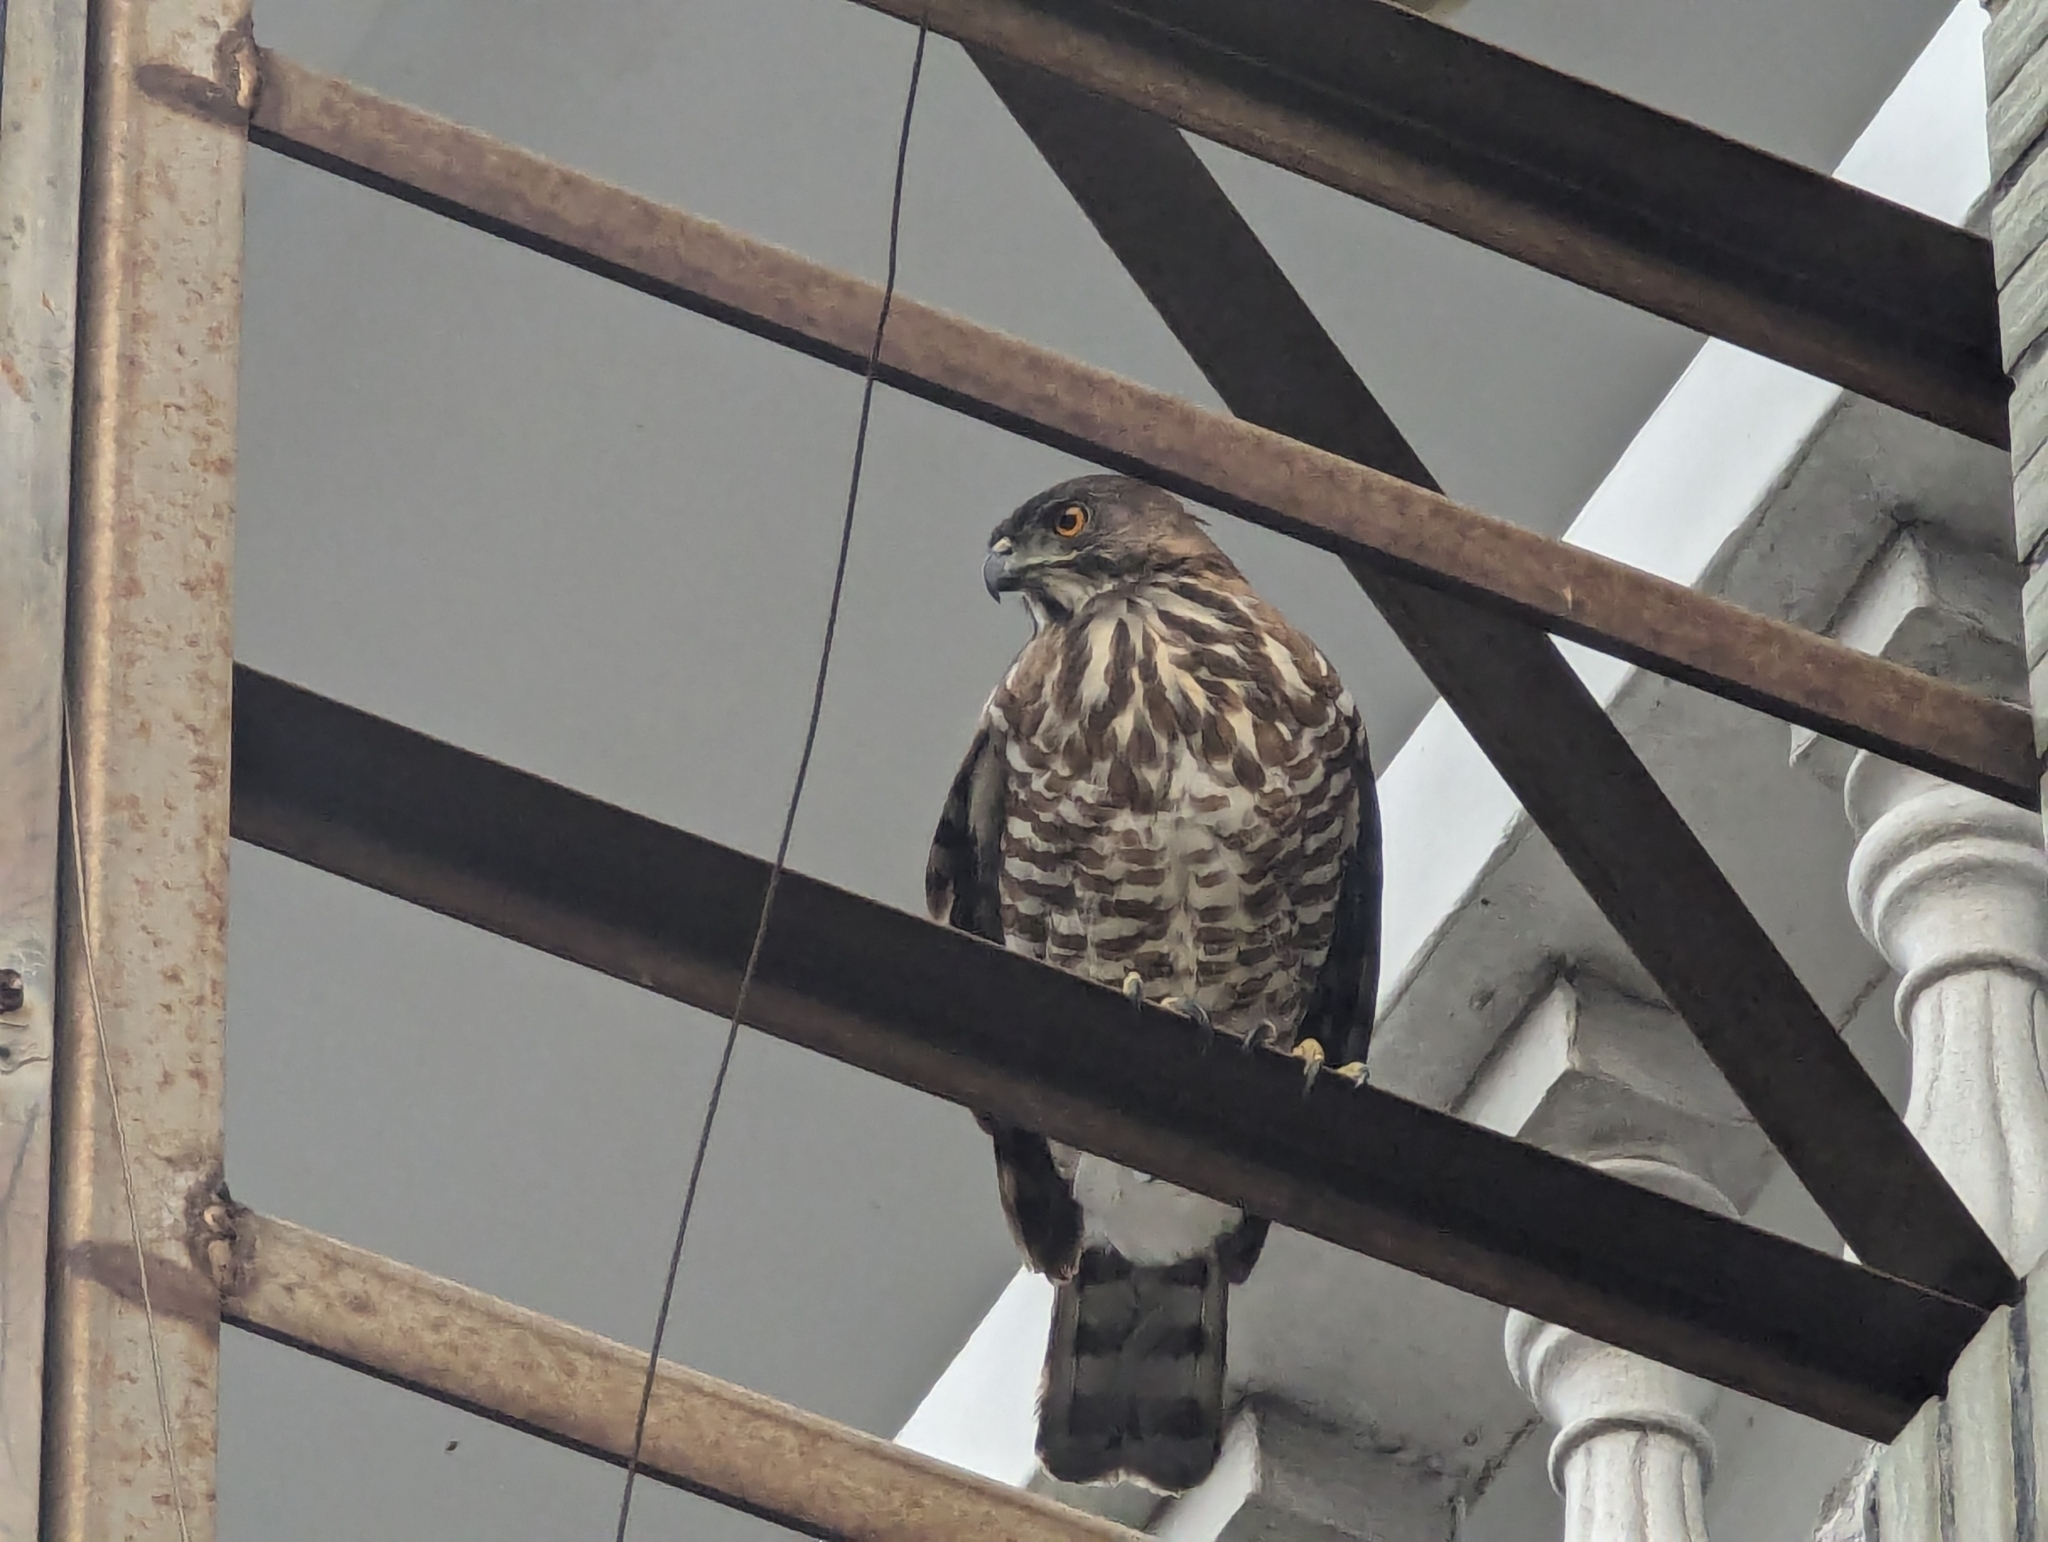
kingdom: Animalia
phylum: Chordata
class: Aves
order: Accipitriformes
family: Accipitridae
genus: Accipiter
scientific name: Accipiter trivirgatus
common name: Crested goshawk
